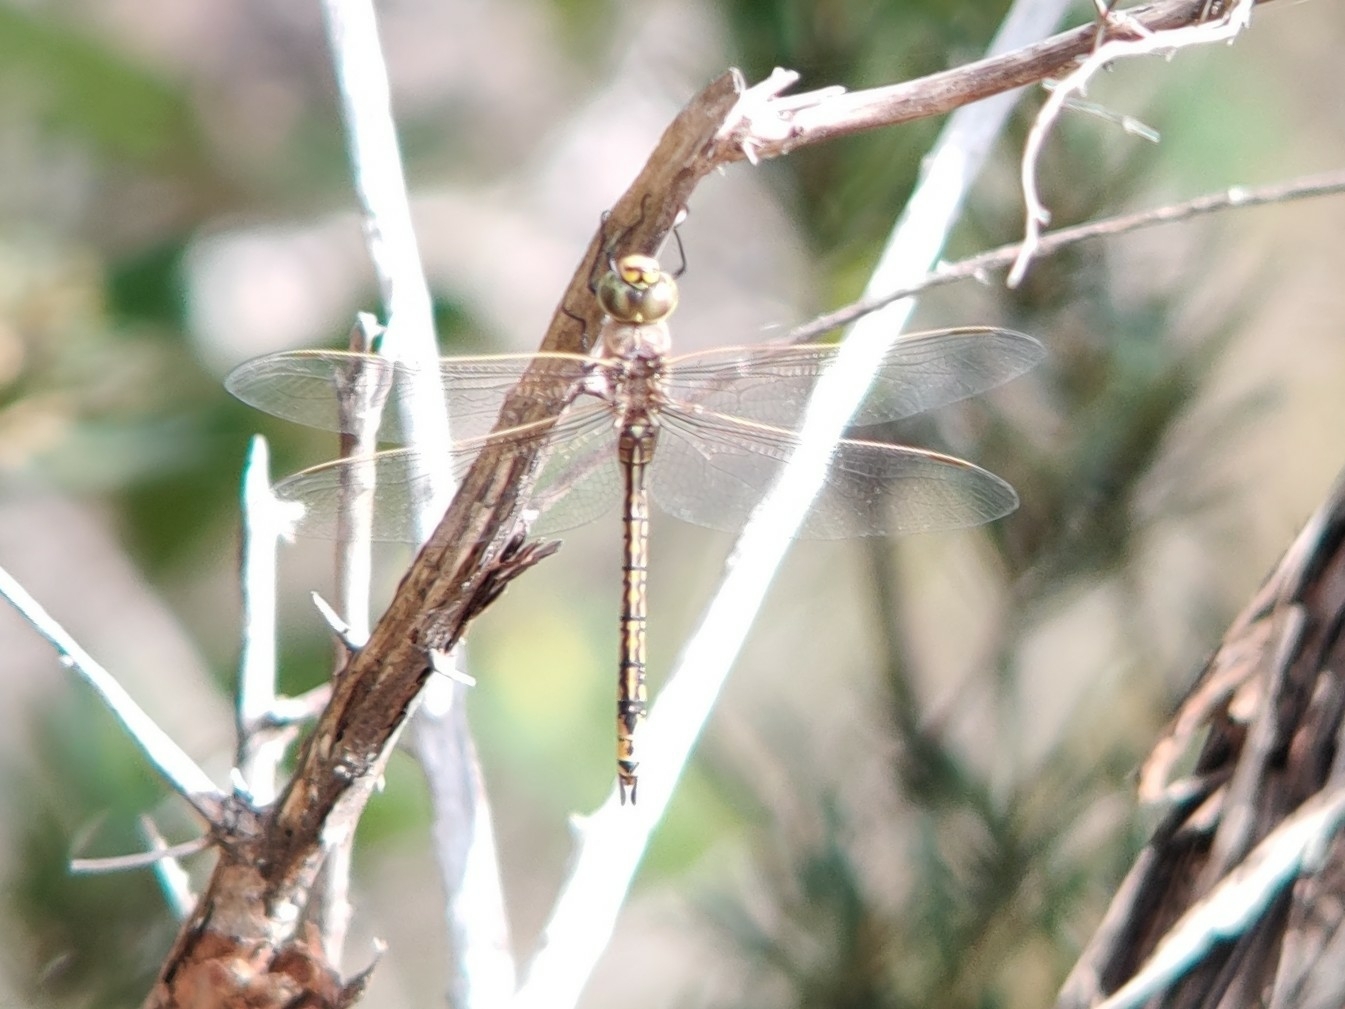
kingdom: Animalia
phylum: Arthropoda
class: Insecta
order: Odonata
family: Aeshnidae
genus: Anax
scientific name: Anax papuensis
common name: Australian emperor
